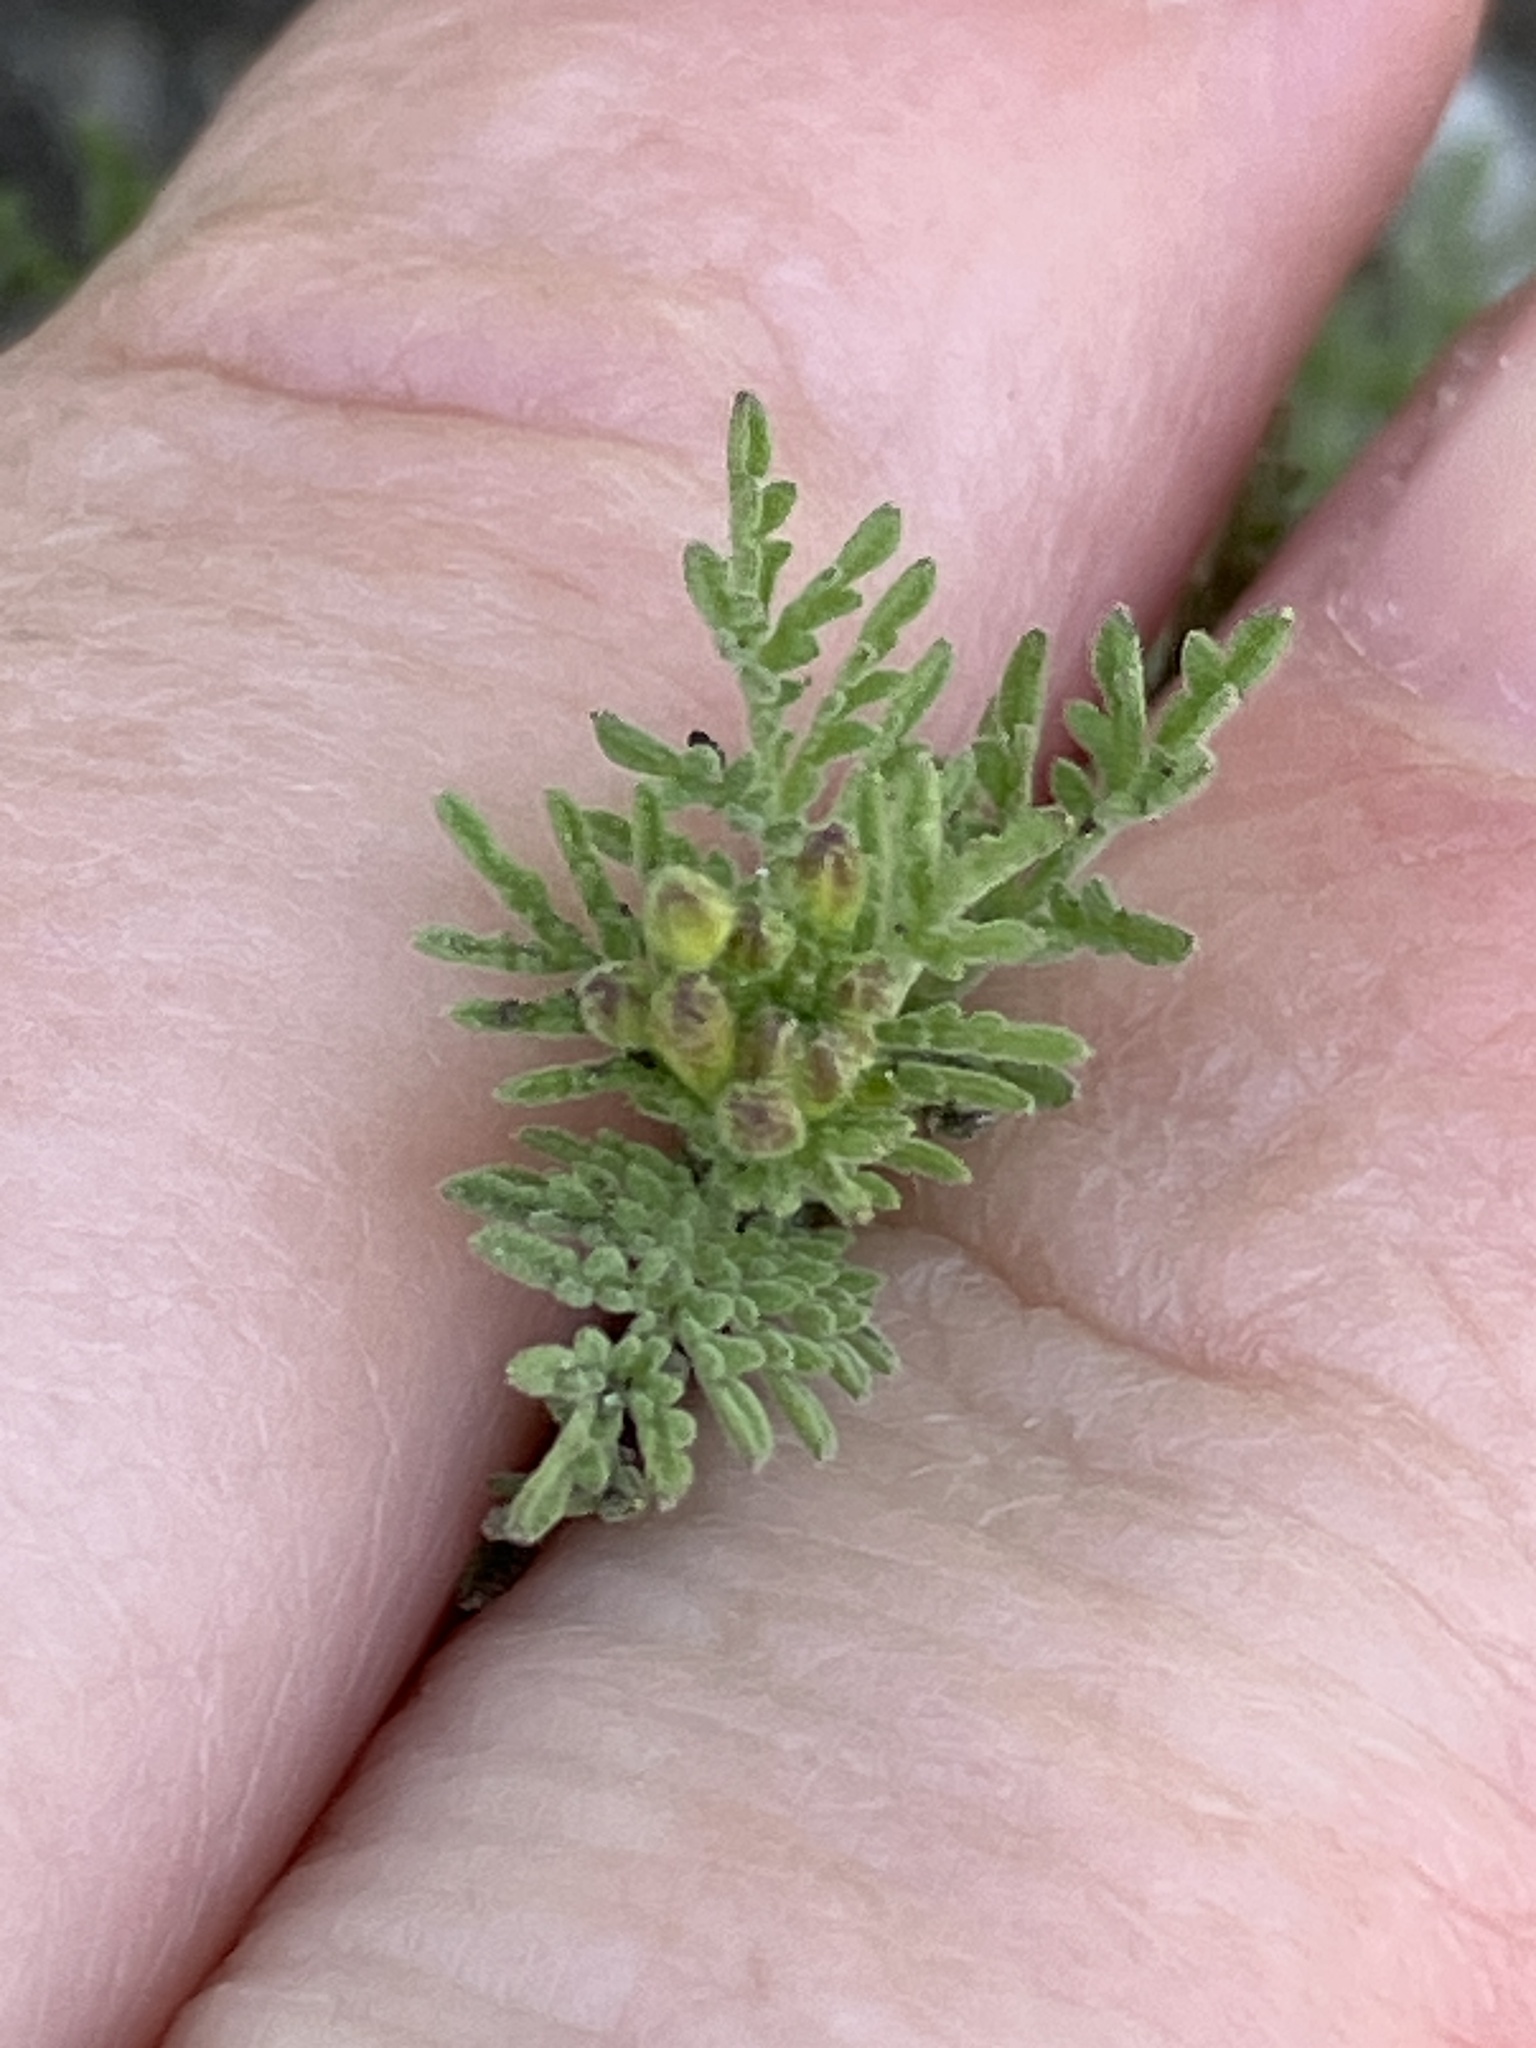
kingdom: Plantae
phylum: Tracheophyta
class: Magnoliopsida
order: Brassicales
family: Brassicaceae
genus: Descurainia
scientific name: Descurainia sophia
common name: Flixweed
